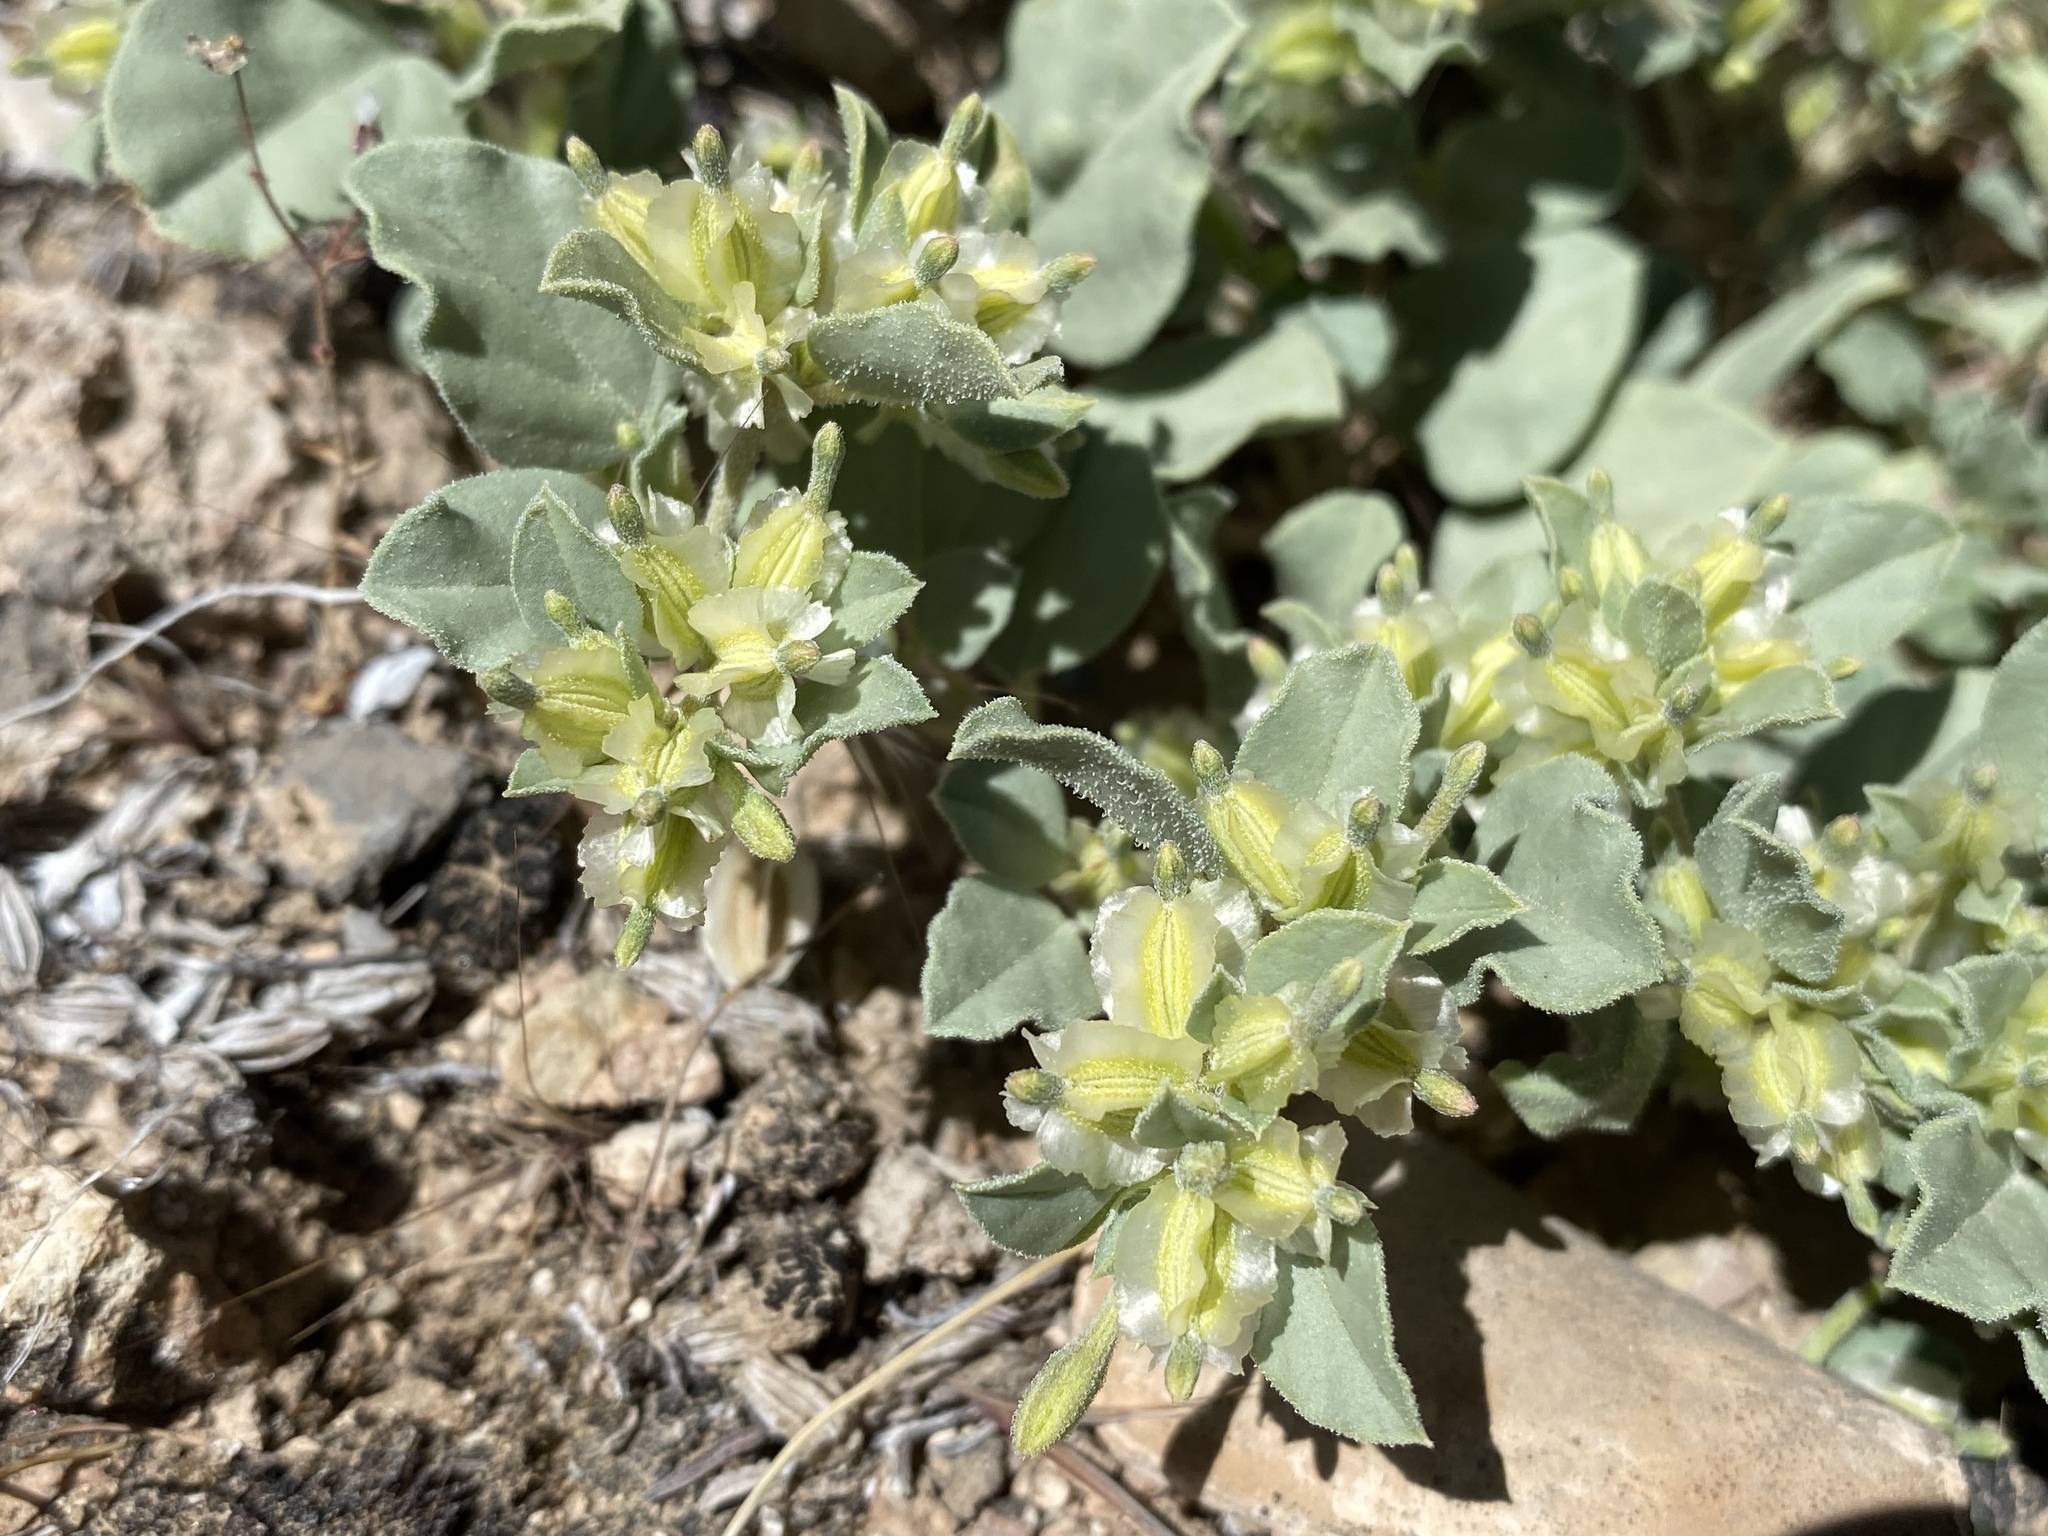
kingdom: Plantae
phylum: Tracheophyta
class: Magnoliopsida
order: Caryophyllales
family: Nyctaginaceae
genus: Acleisanthes
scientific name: Acleisanthes nevadensis
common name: Desert moonpod
